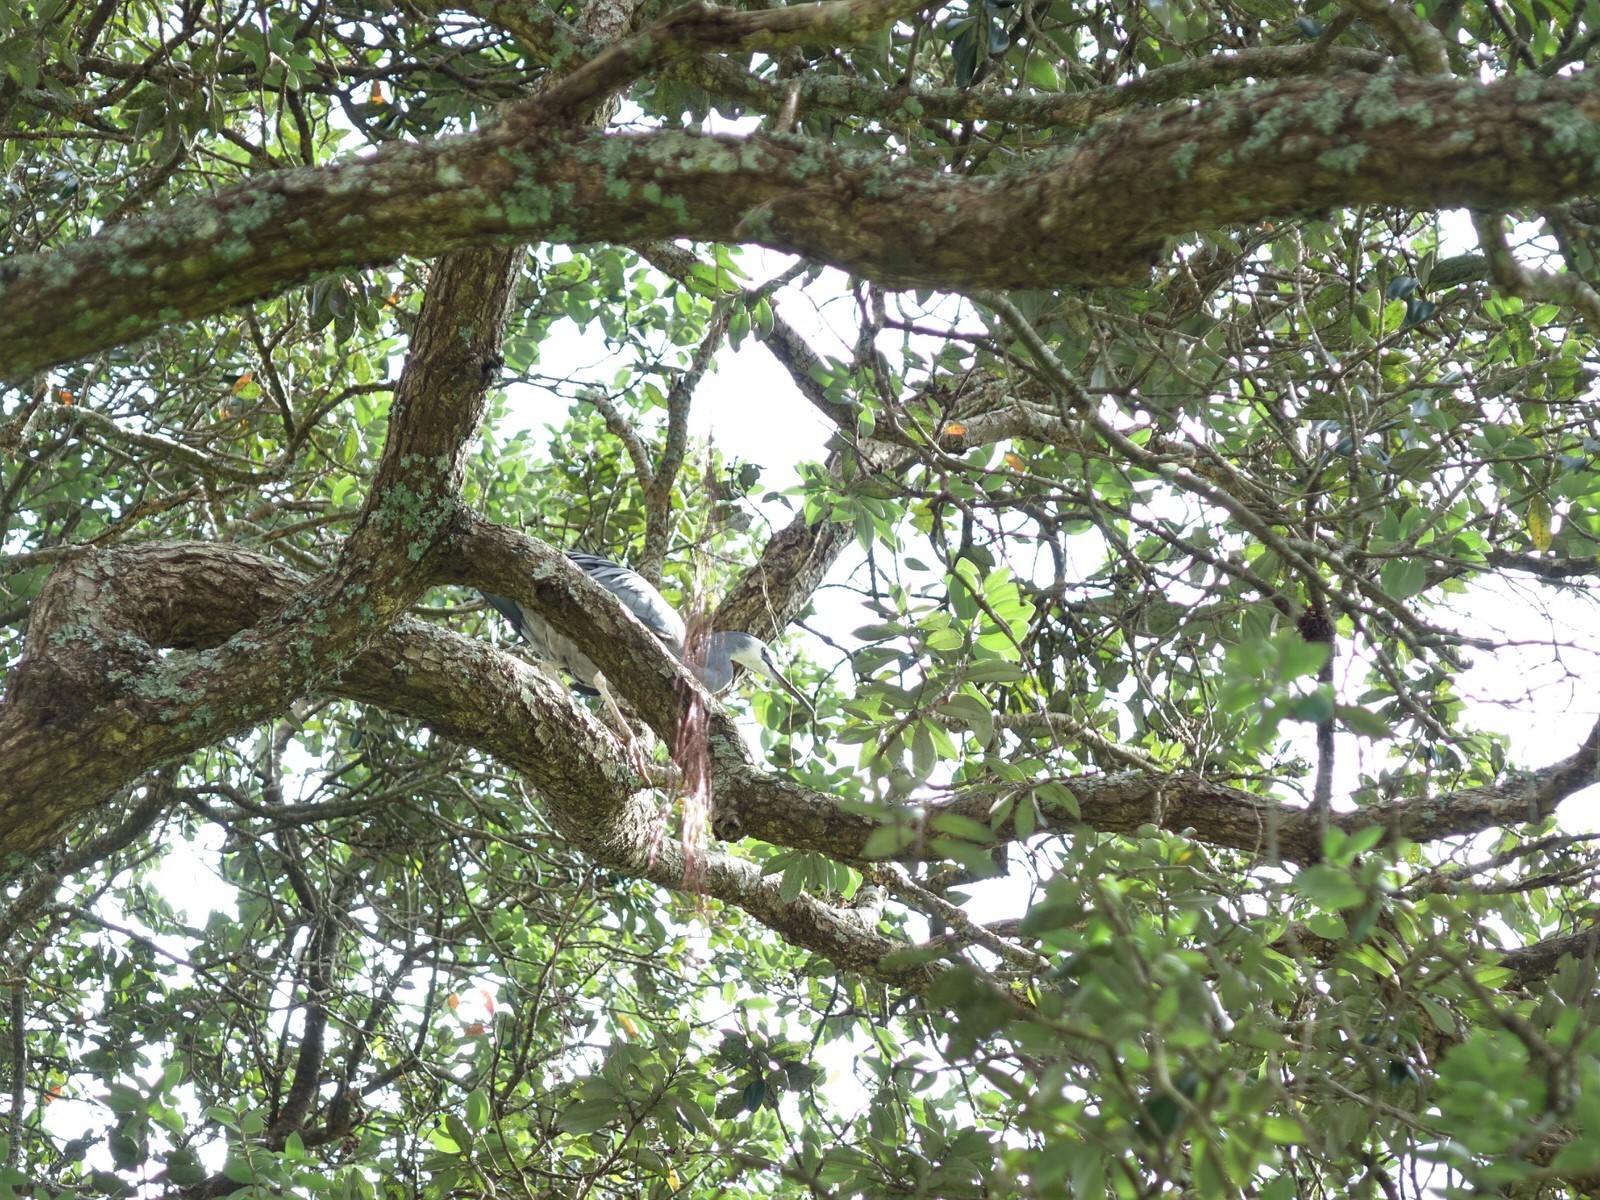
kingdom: Animalia
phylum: Chordata
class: Aves
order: Pelecaniformes
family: Ardeidae
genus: Egretta
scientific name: Egretta novaehollandiae
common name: White-faced heron
